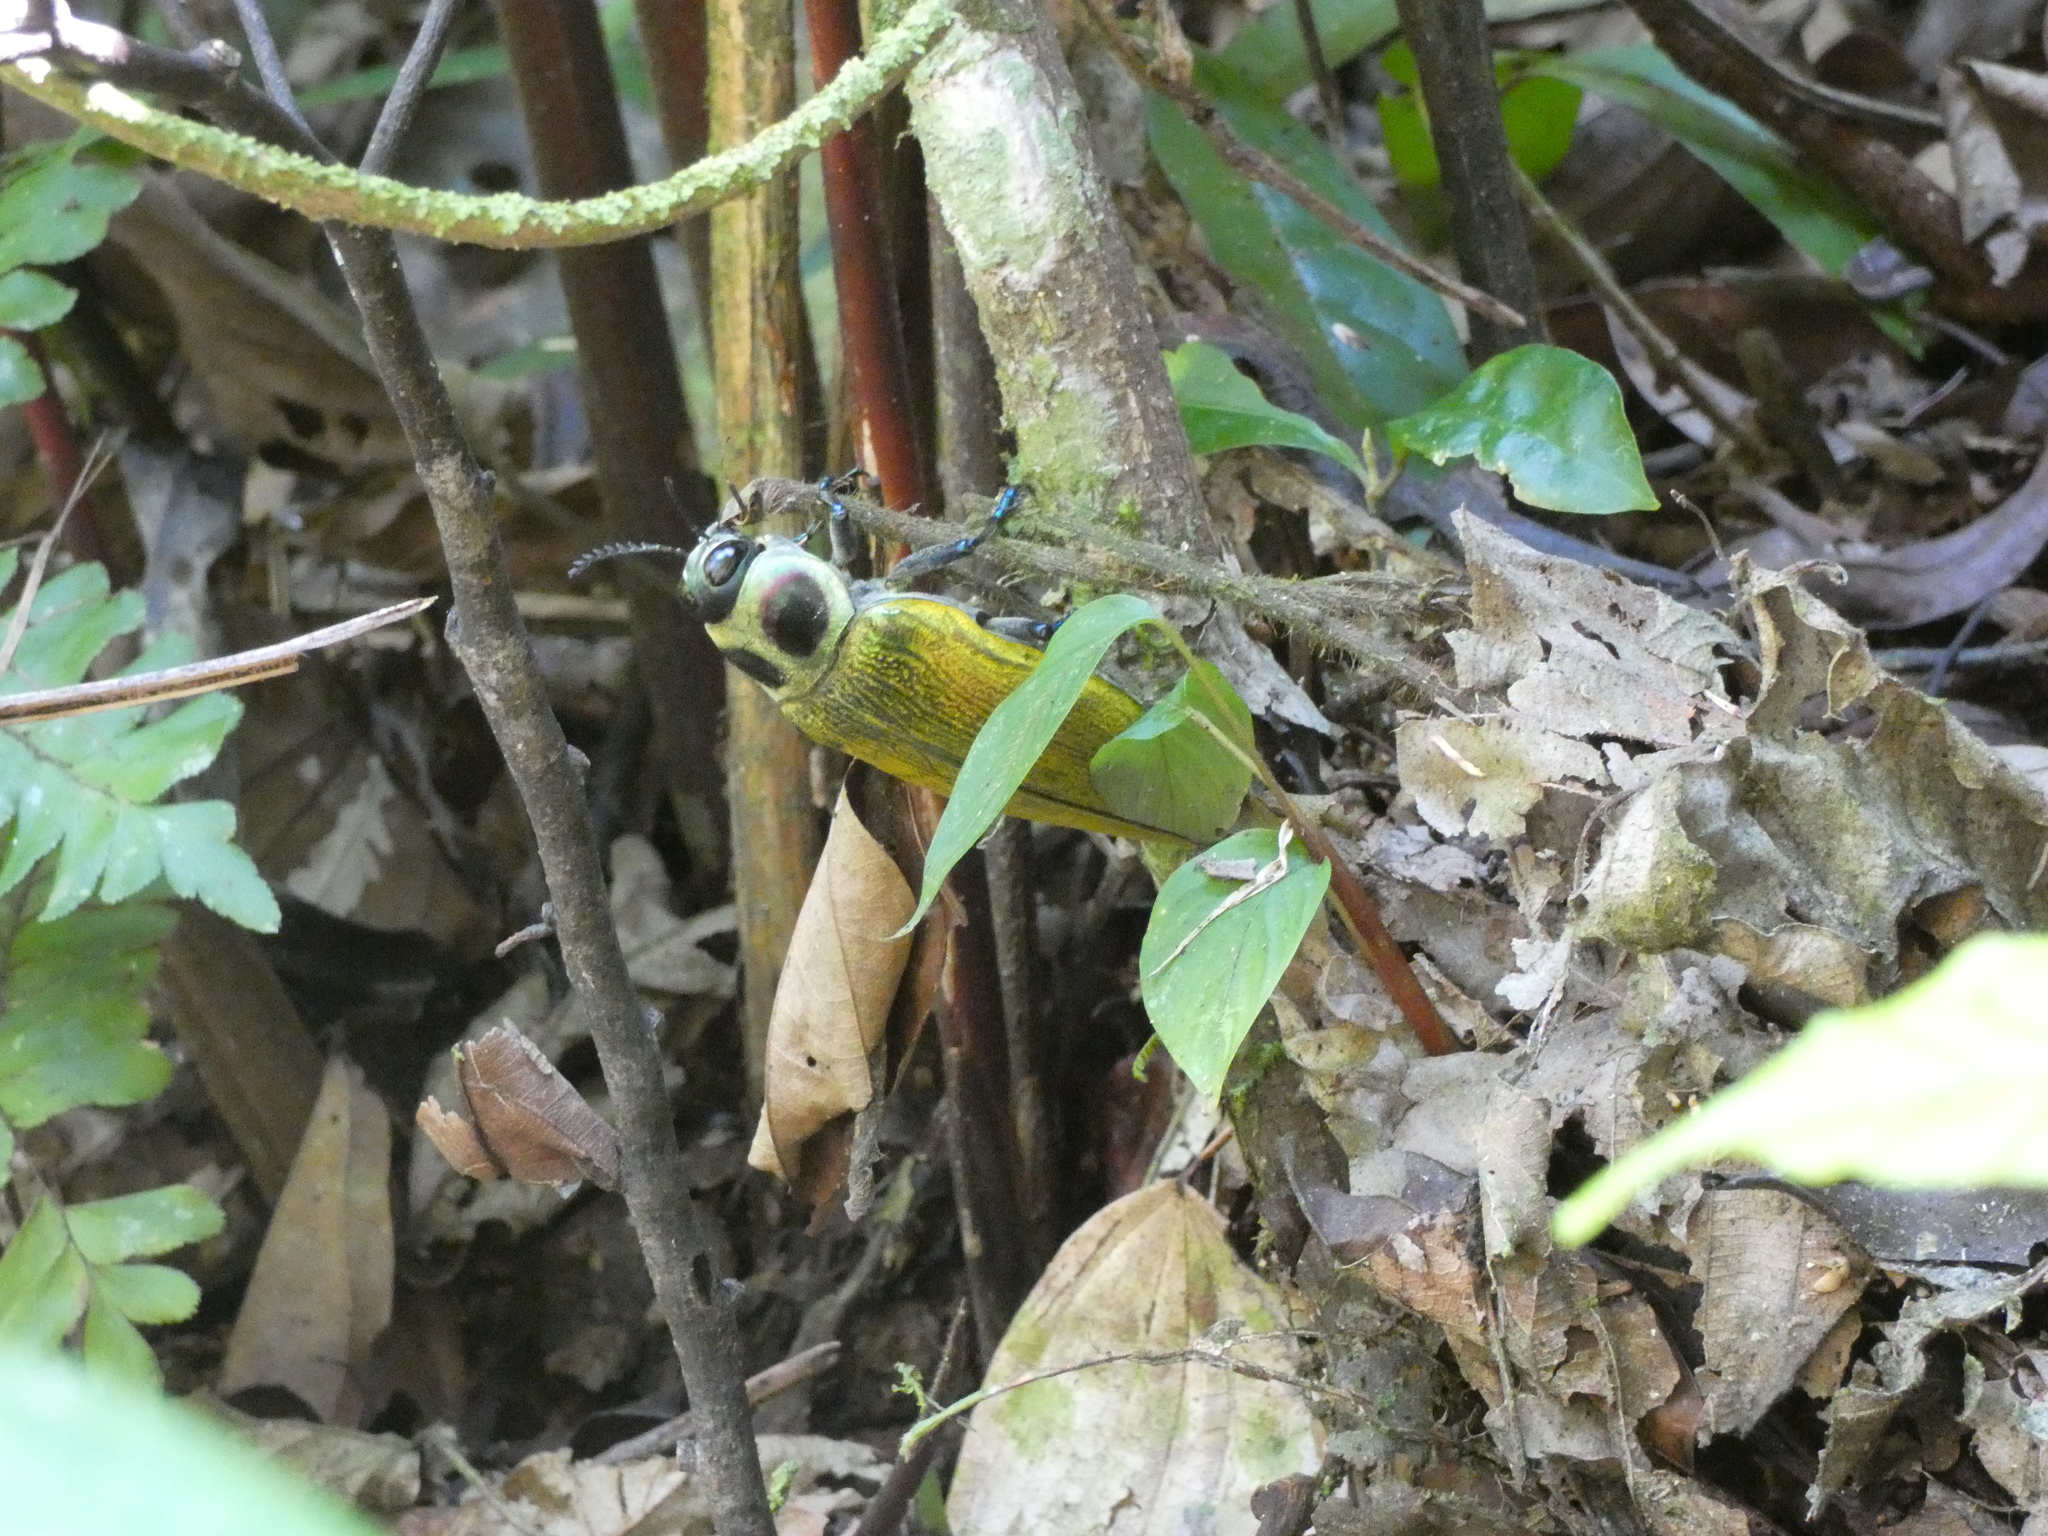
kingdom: Animalia
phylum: Arthropoda
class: Insecta
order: Coleoptera
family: Buprestidae
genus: Euchroma
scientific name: Euchroma giganteum
